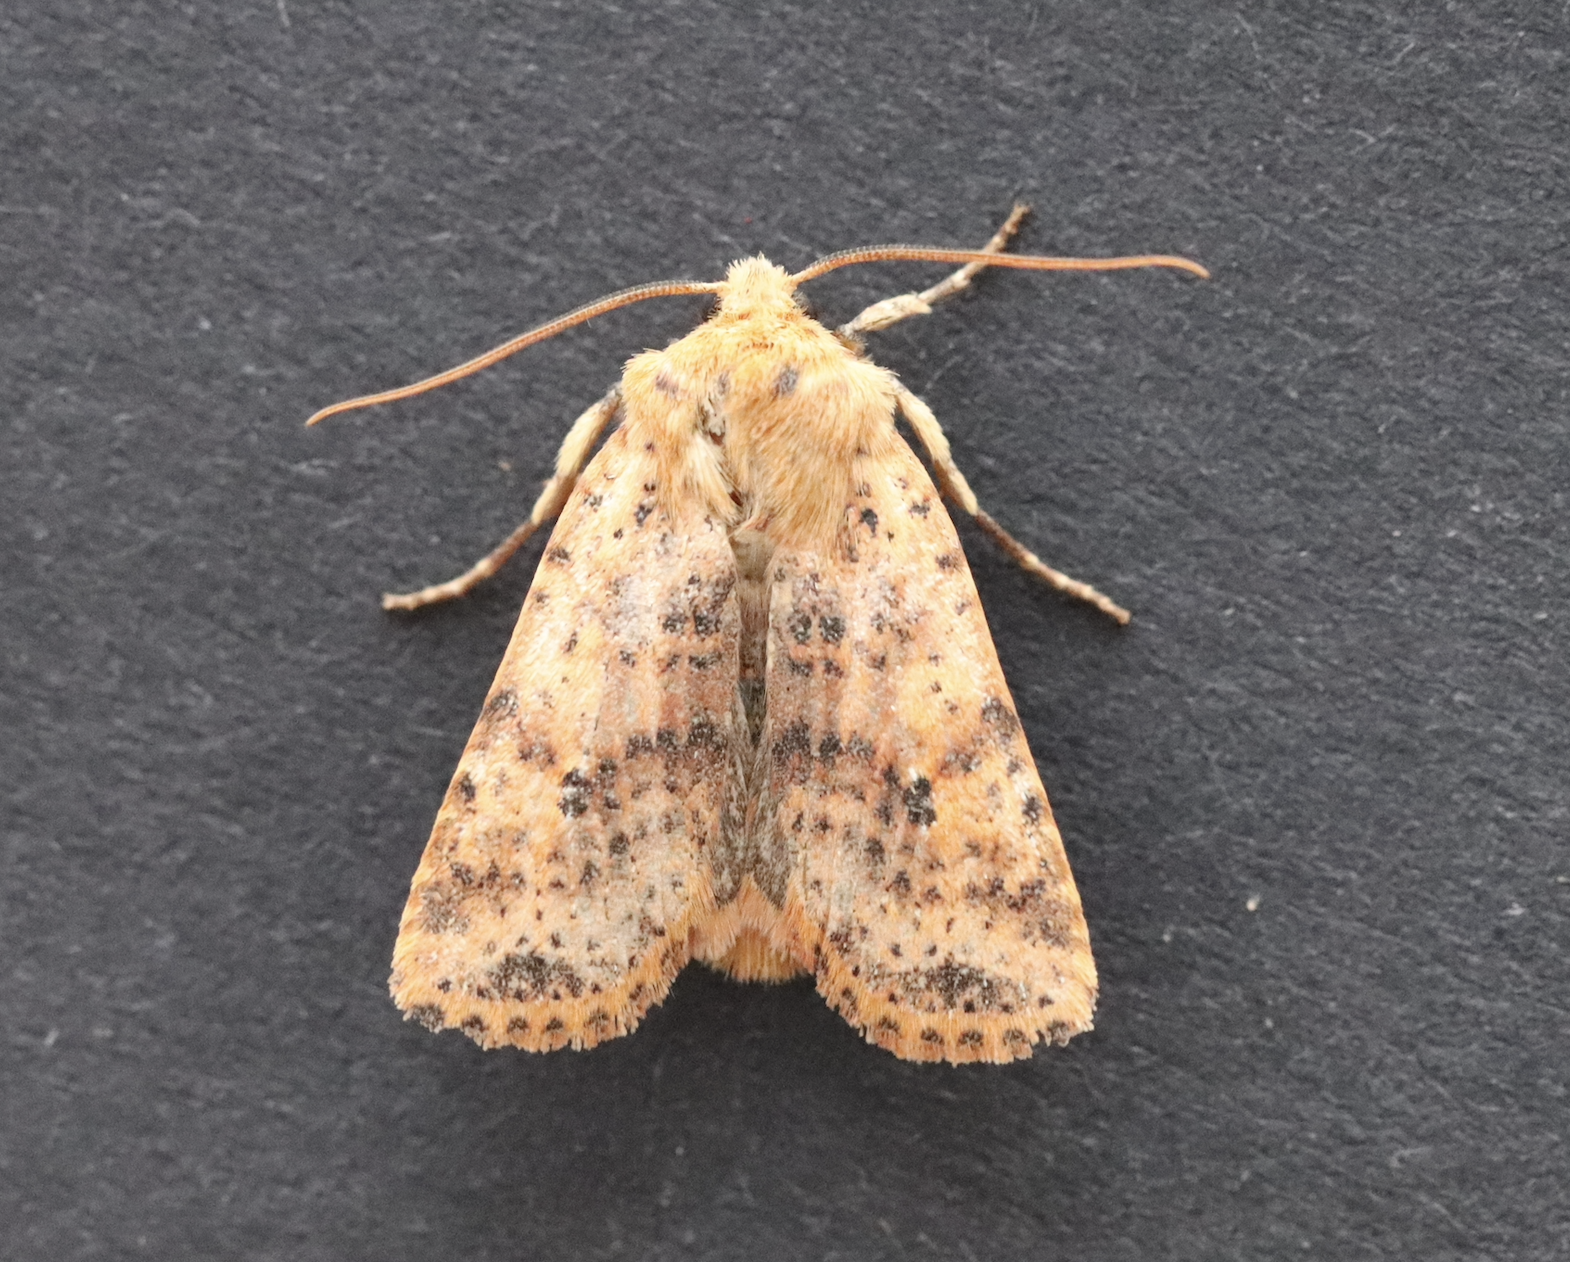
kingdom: Animalia
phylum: Arthropoda
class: Insecta
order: Lepidoptera
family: Noctuidae
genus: Conistra
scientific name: Conistra rubiginea
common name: Dotted chestnut
